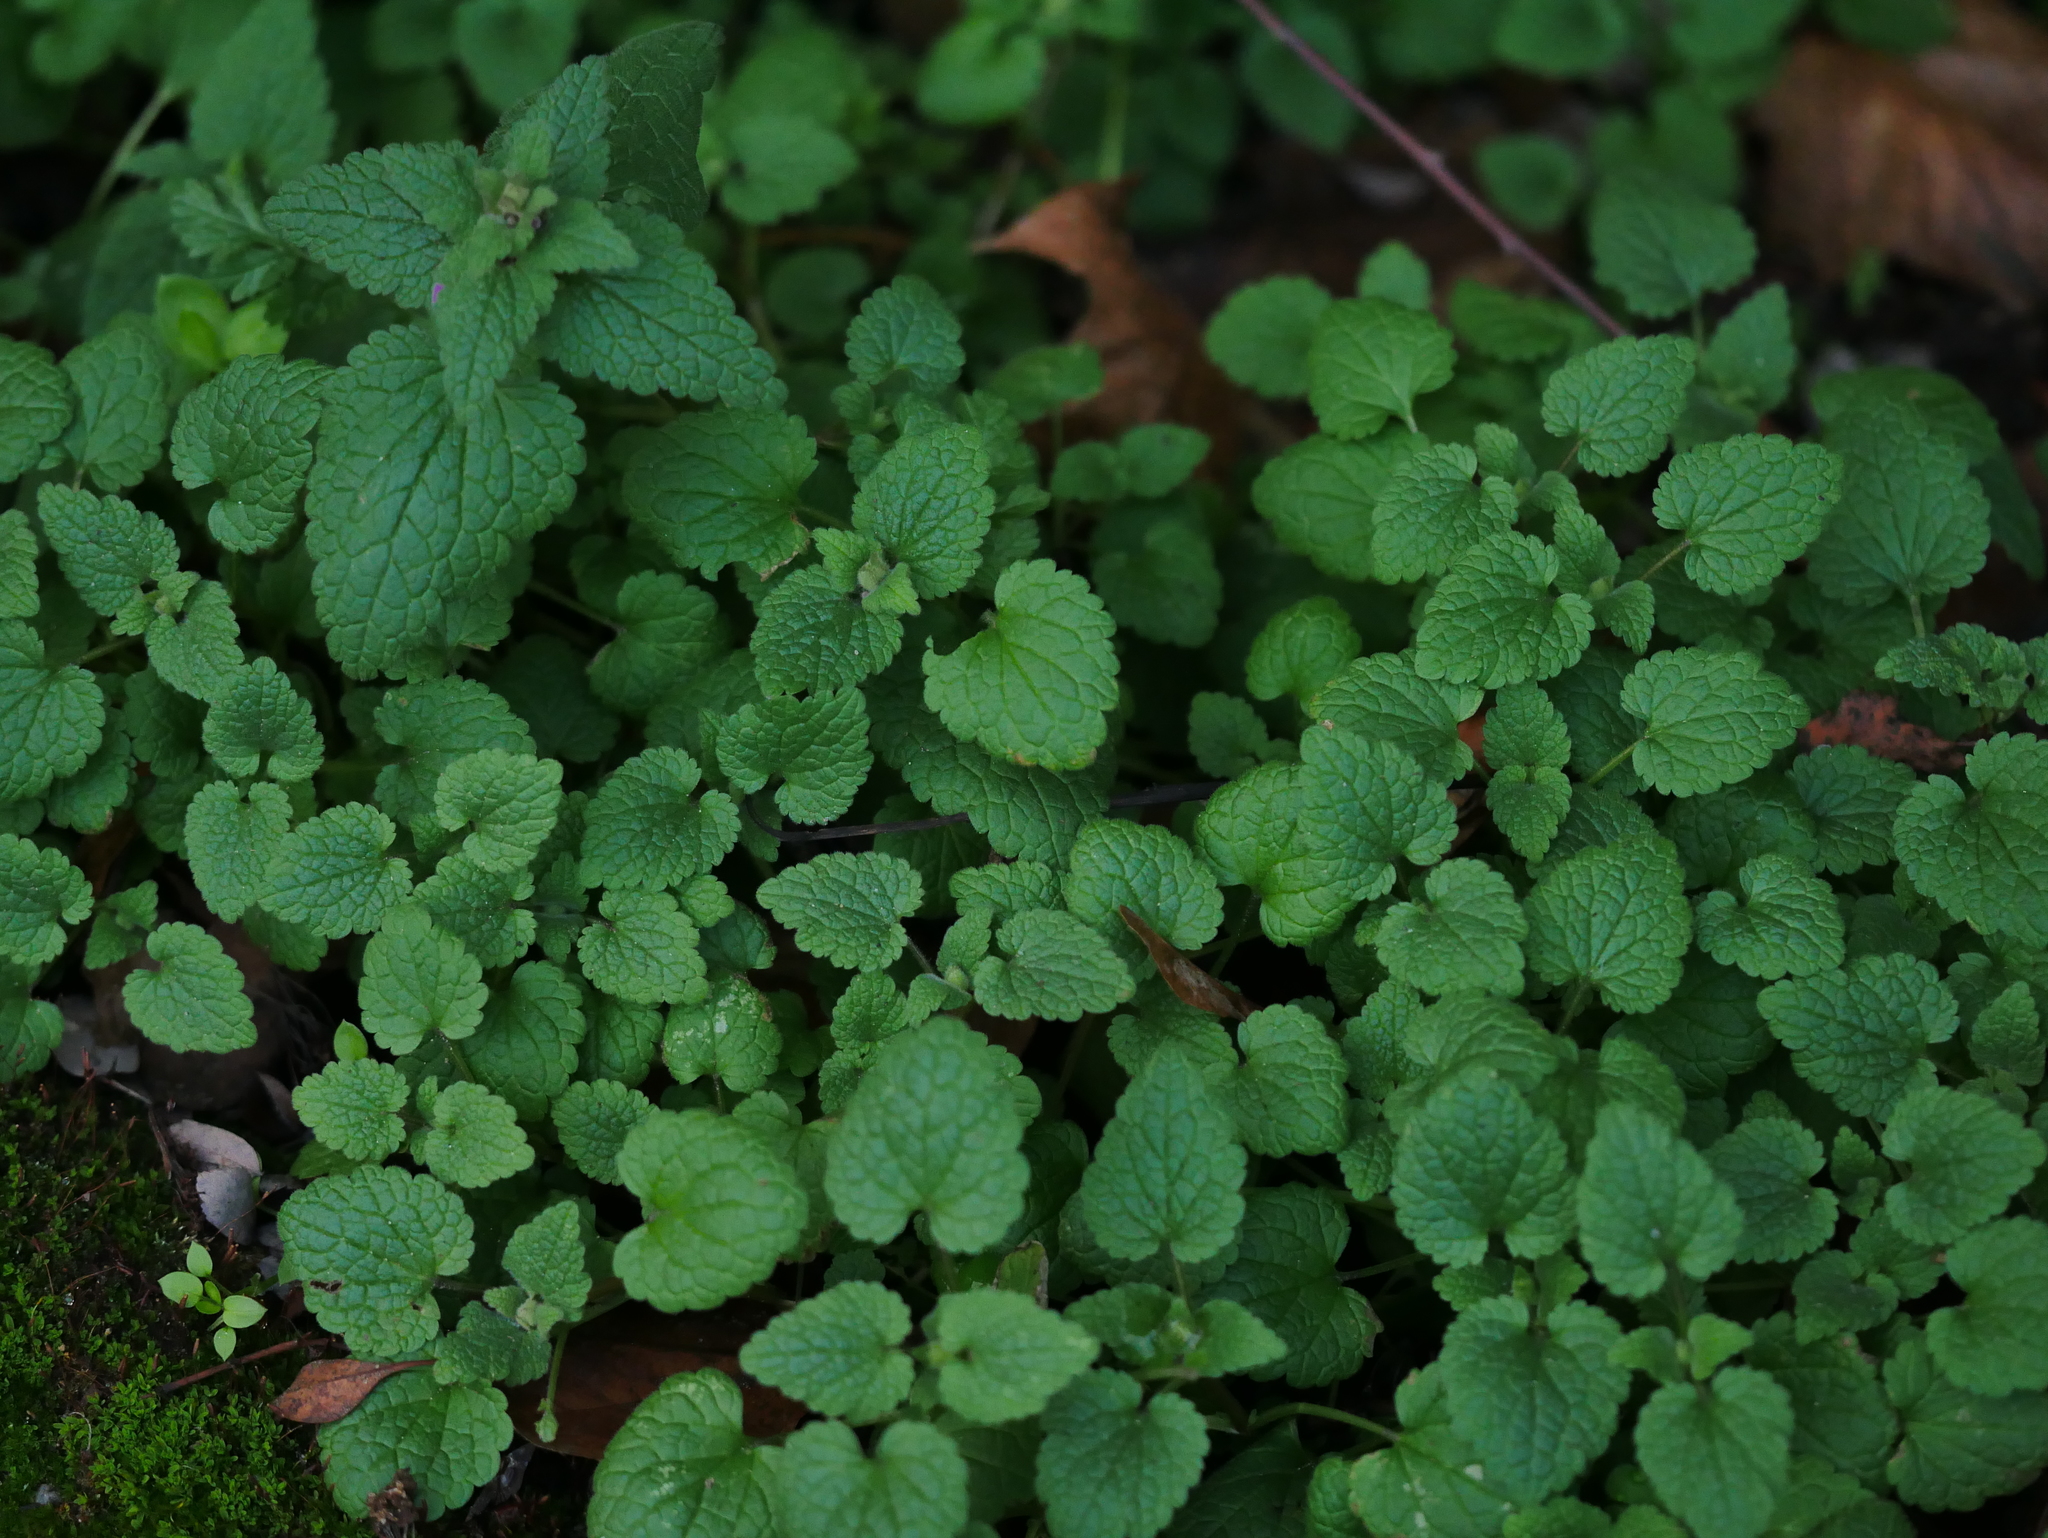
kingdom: Plantae
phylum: Tracheophyta
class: Magnoliopsida
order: Lamiales
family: Lamiaceae
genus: Lamium
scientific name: Lamium purpureum
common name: Red dead-nettle
